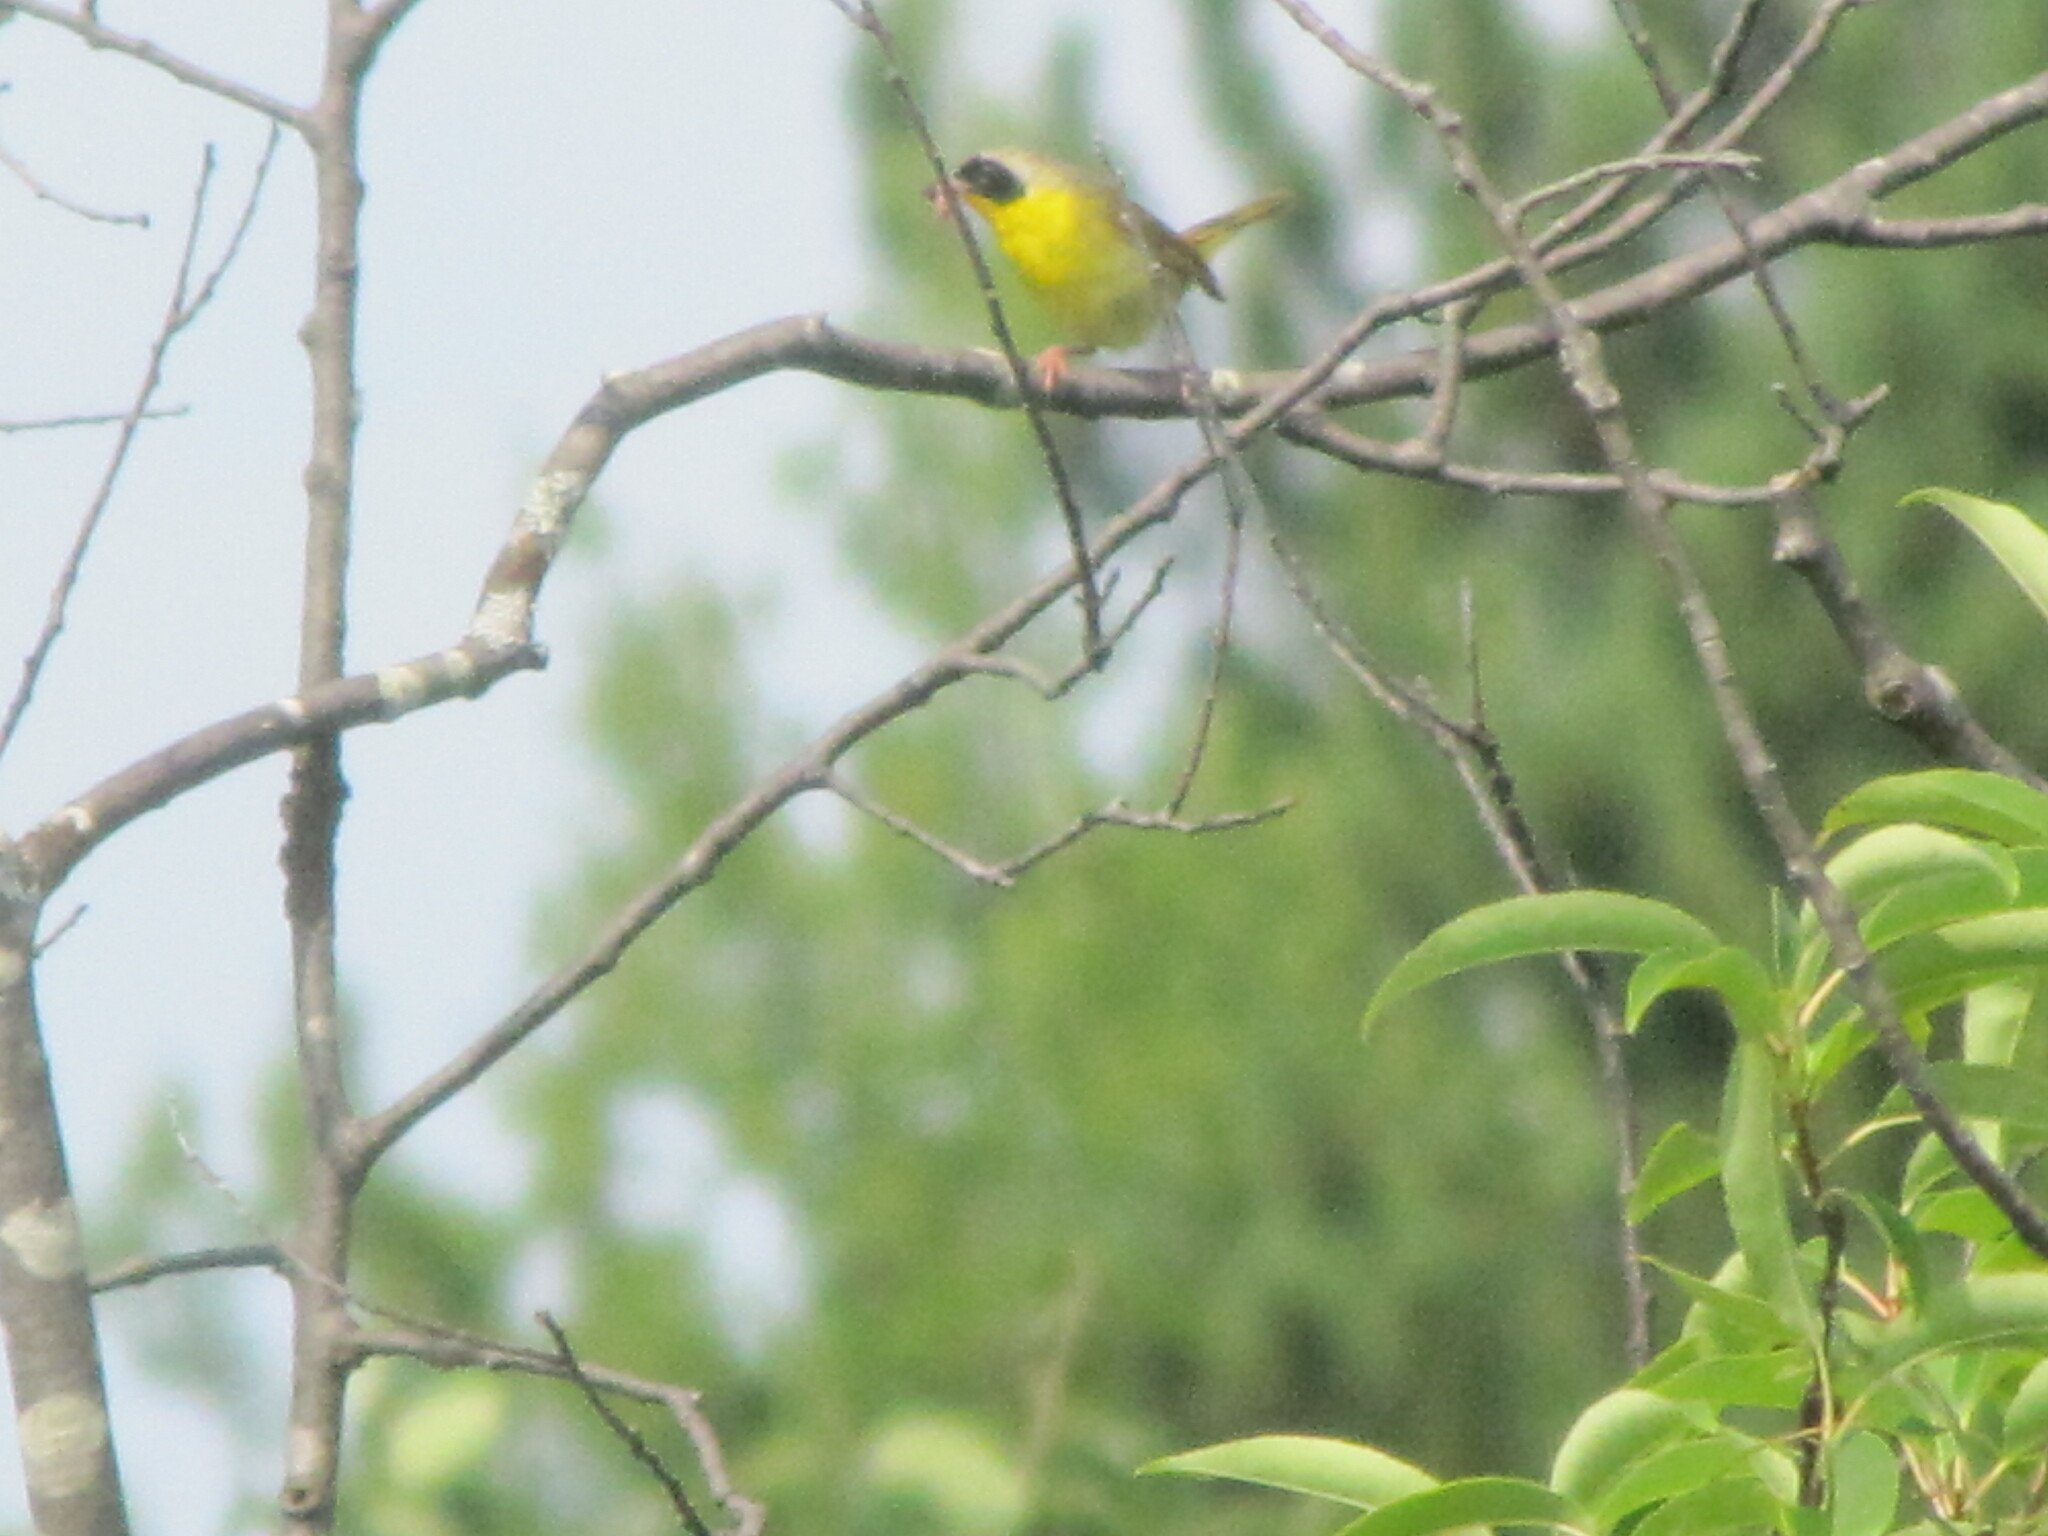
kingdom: Animalia
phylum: Chordata
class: Aves
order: Passeriformes
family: Parulidae
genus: Geothlypis
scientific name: Geothlypis trichas
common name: Common yellowthroat
